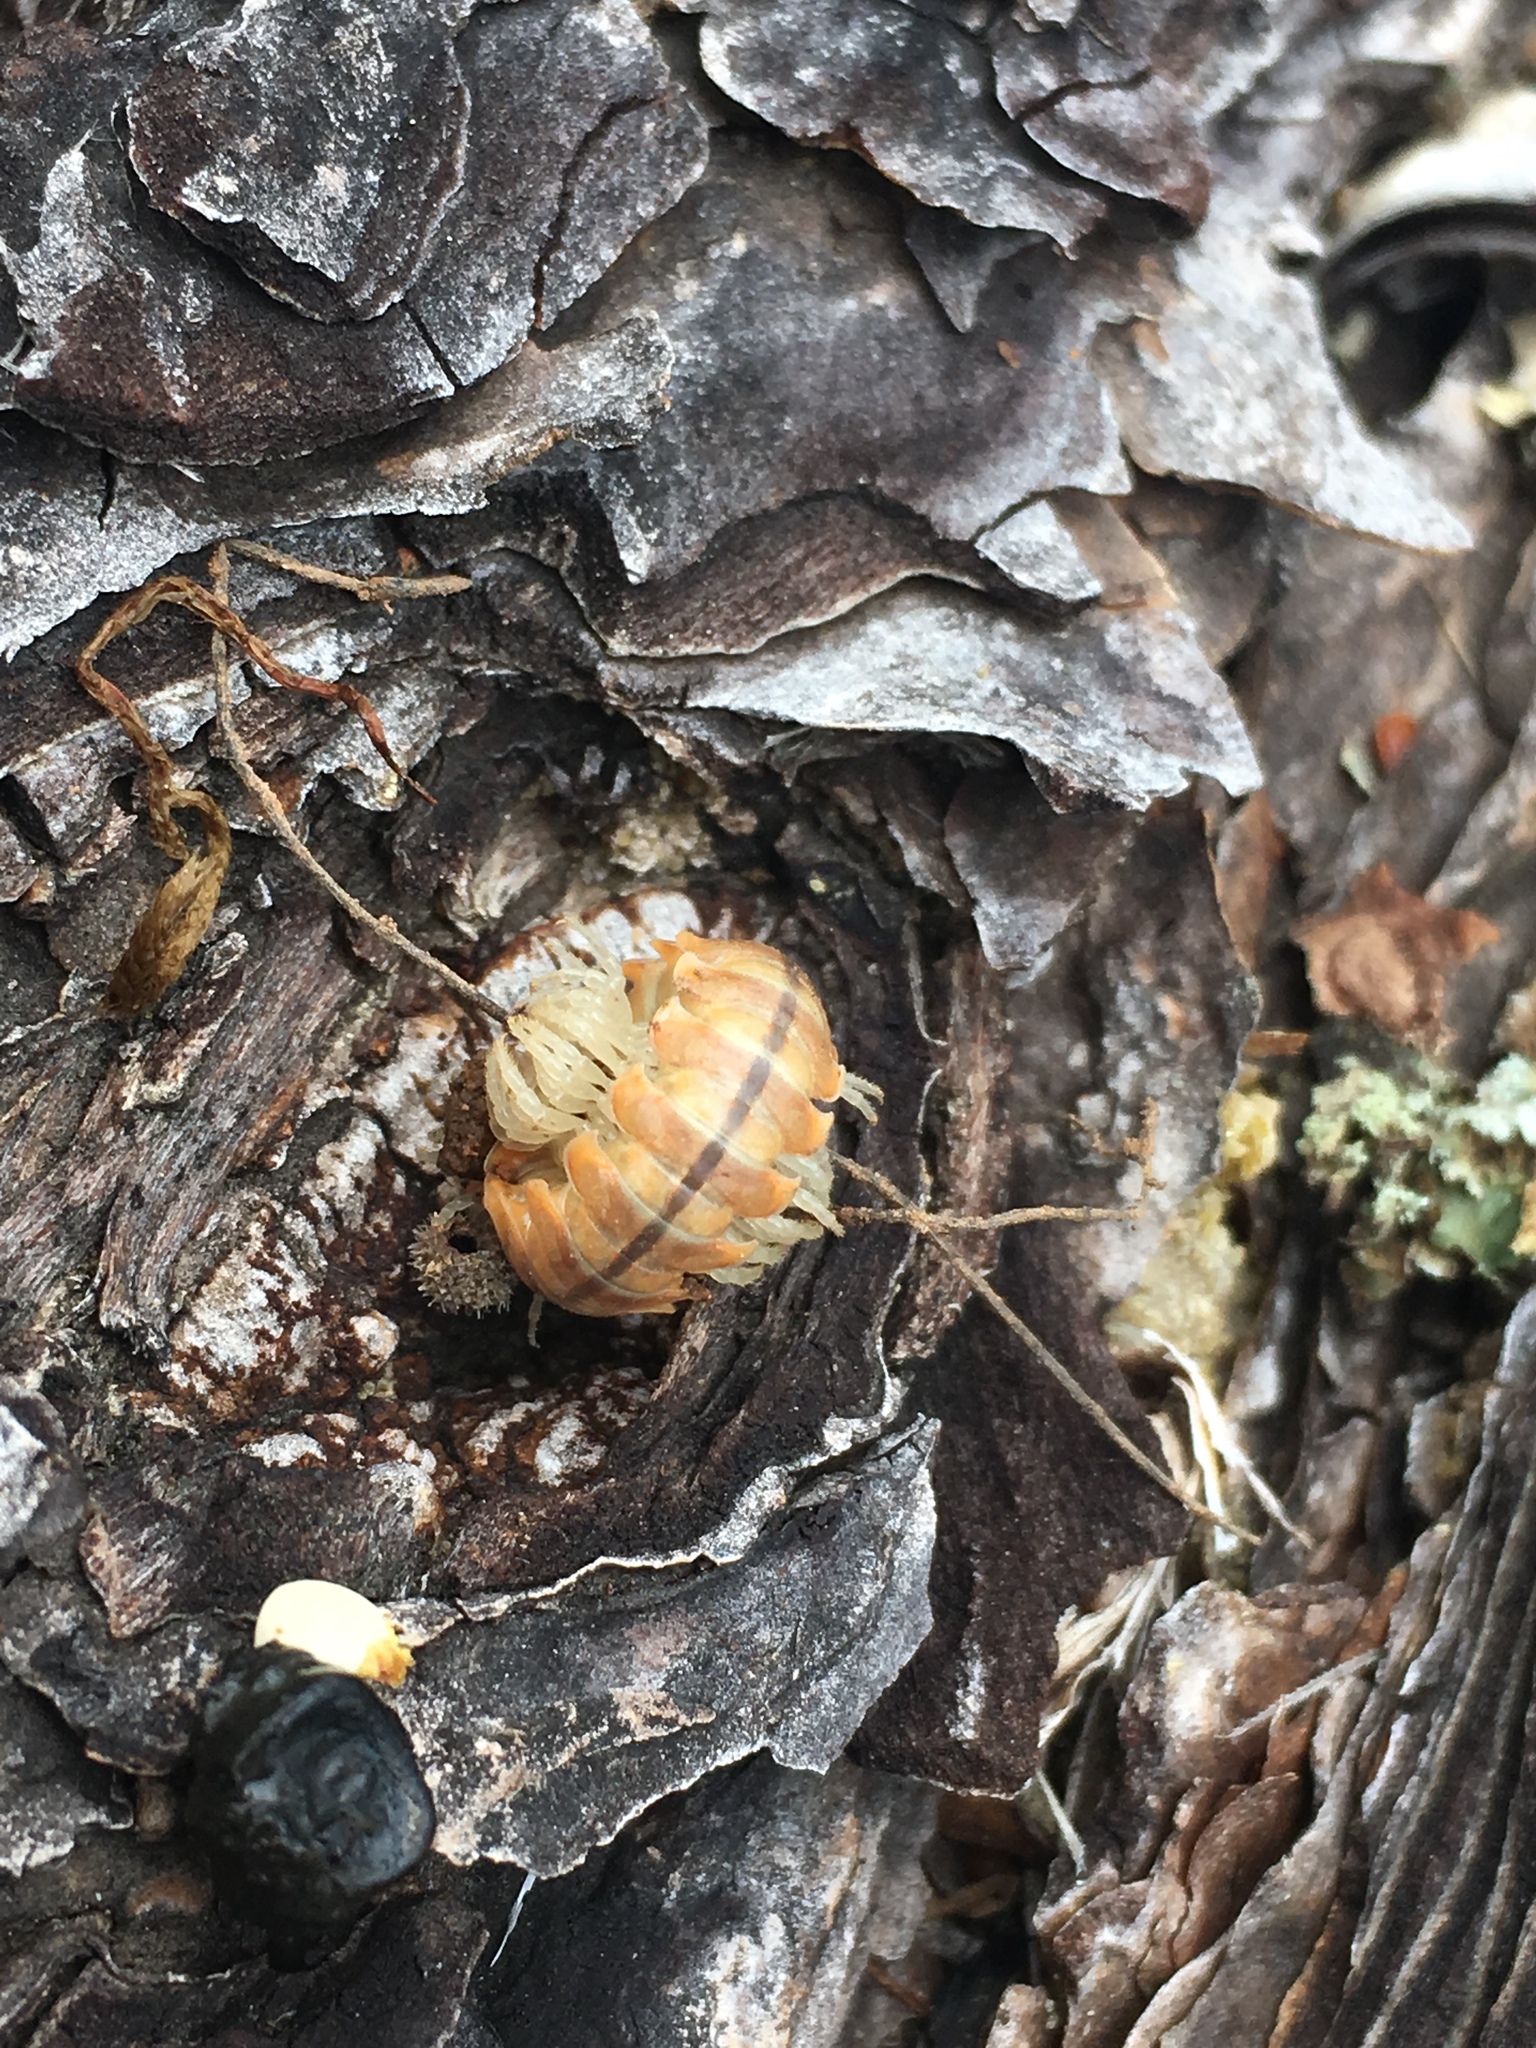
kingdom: Animalia
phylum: Arthropoda
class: Diplopoda
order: Polydesmida
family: Xystodesmidae
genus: Wamokia
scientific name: Wamokia placera
